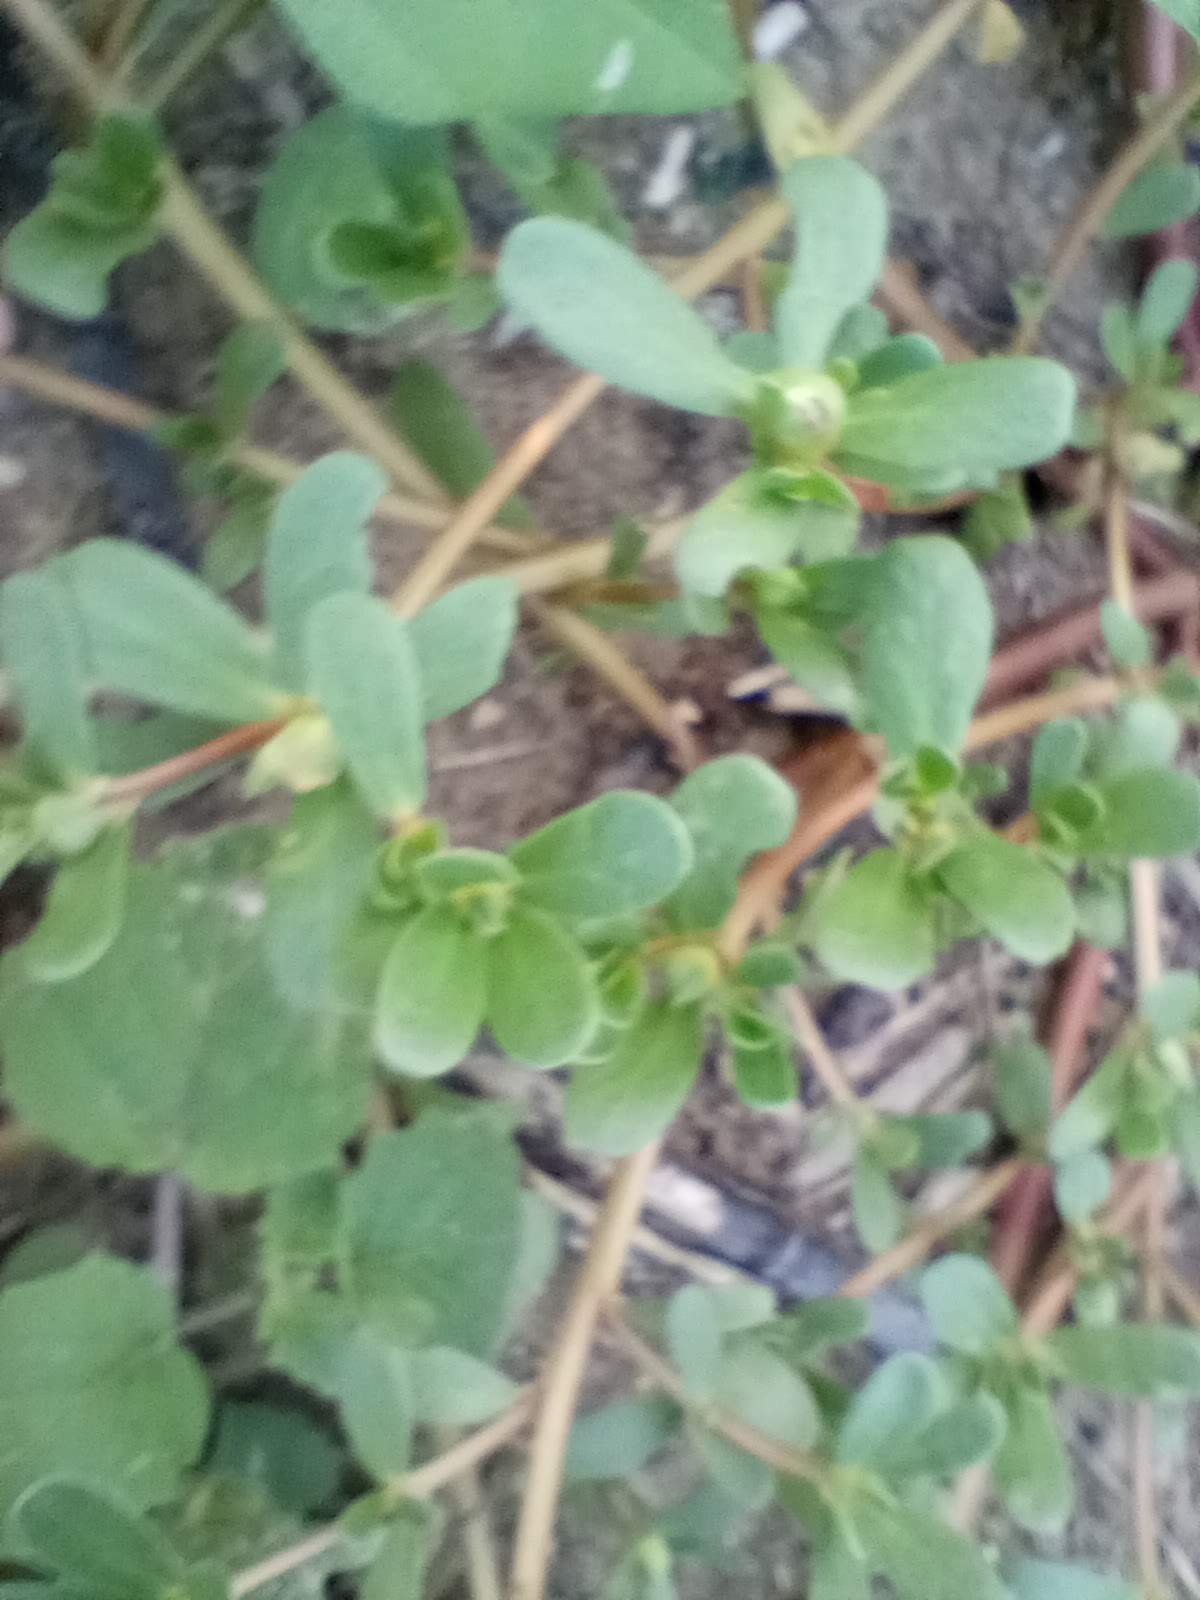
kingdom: Plantae
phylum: Tracheophyta
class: Magnoliopsida
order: Caryophyllales
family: Portulacaceae
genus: Portulaca
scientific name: Portulaca oleracea
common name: Common purslane
